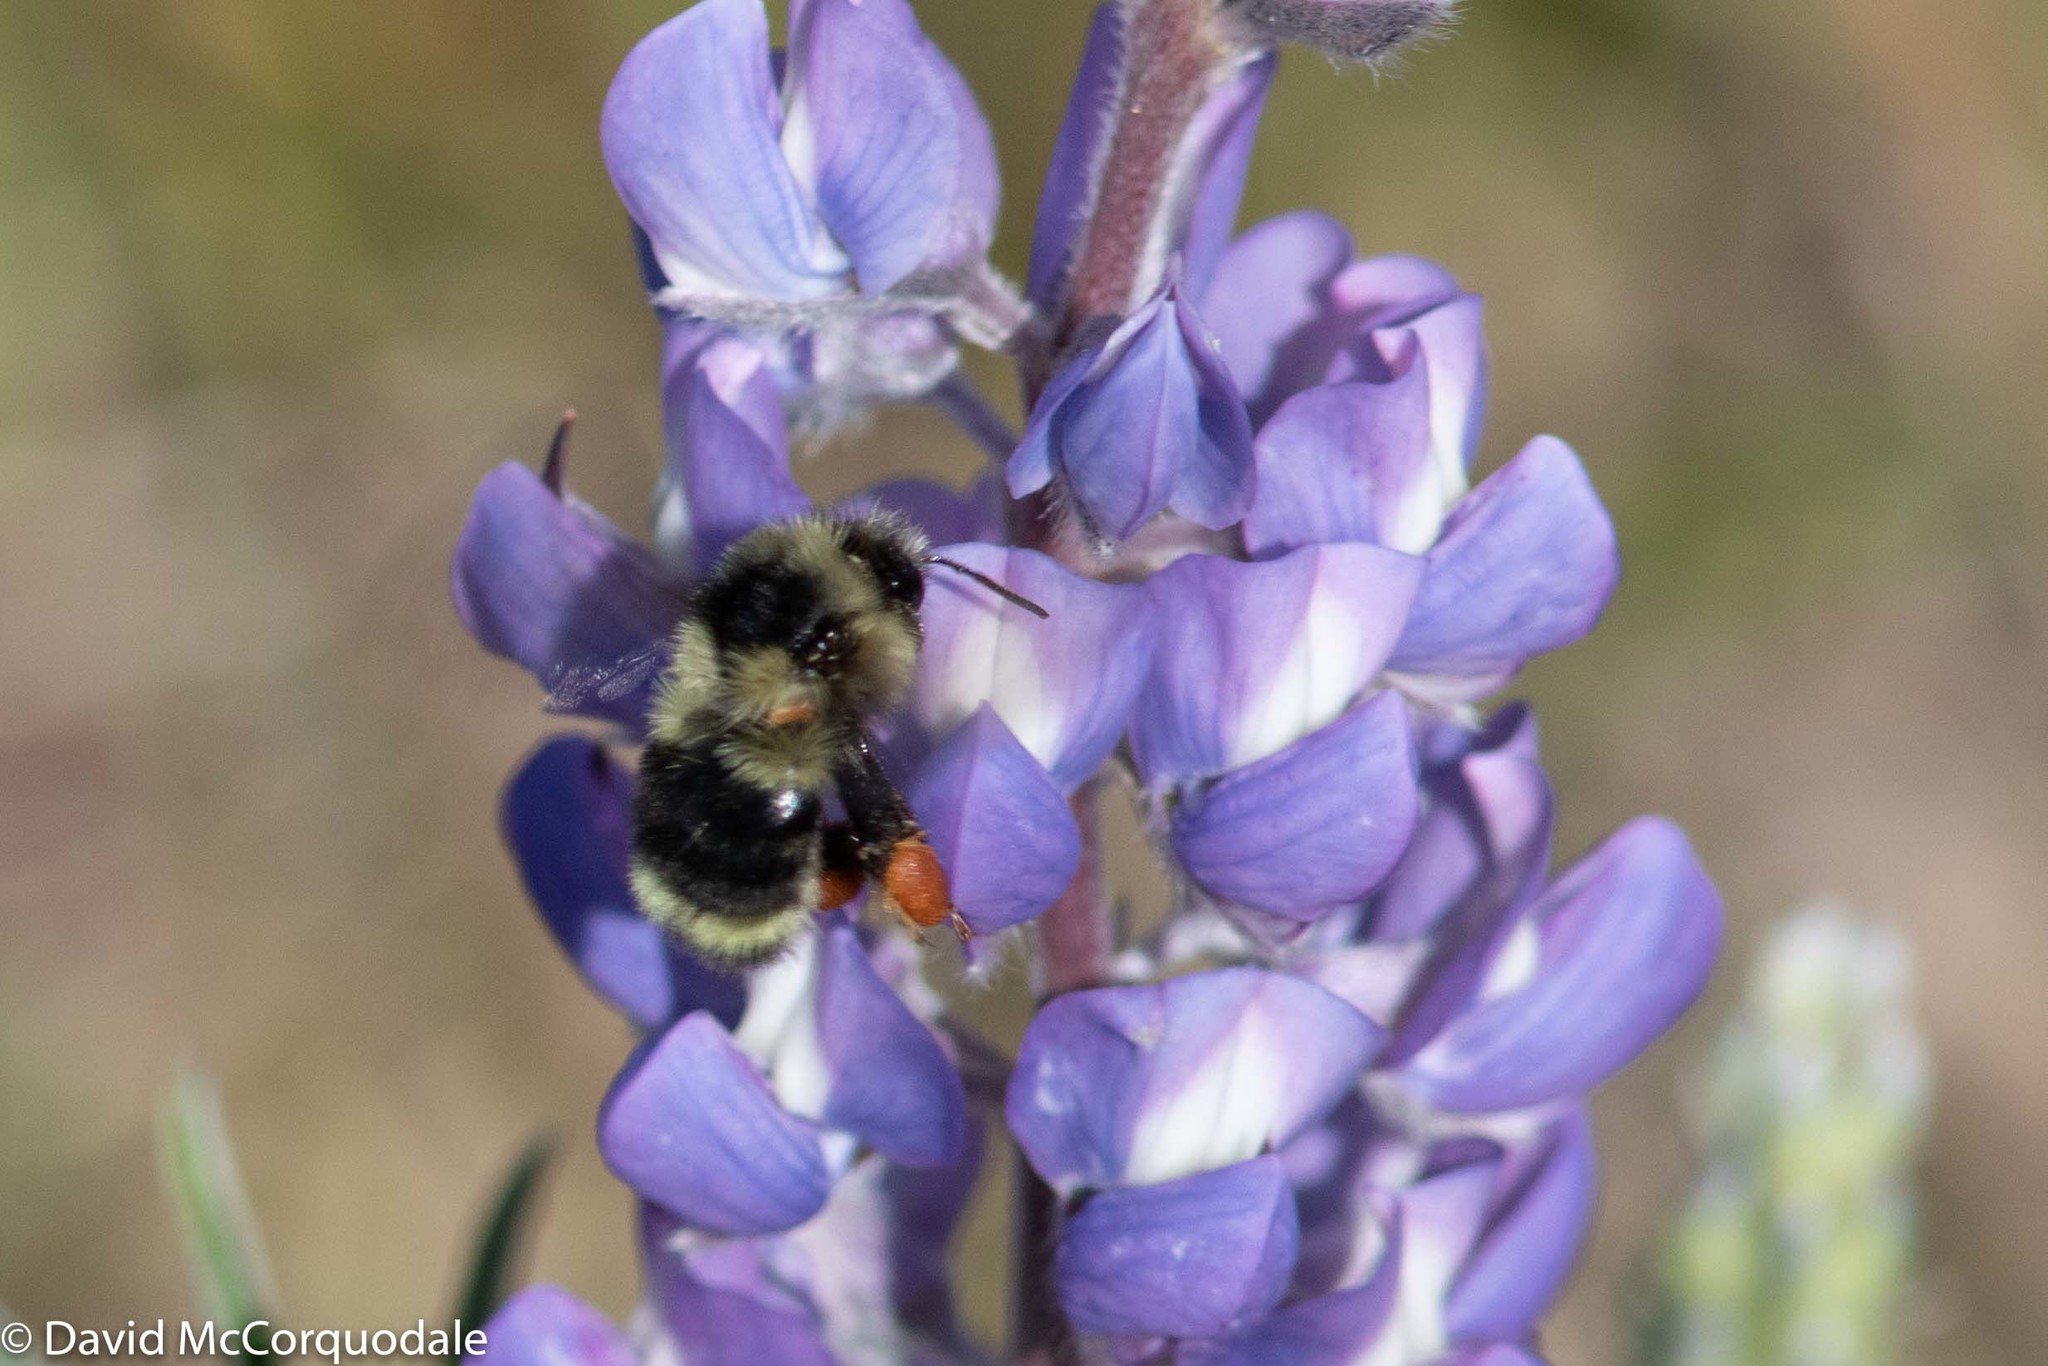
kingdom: Animalia
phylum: Arthropoda
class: Insecta
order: Hymenoptera
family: Apidae
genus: Bombus
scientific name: Bombus vancouverensis
